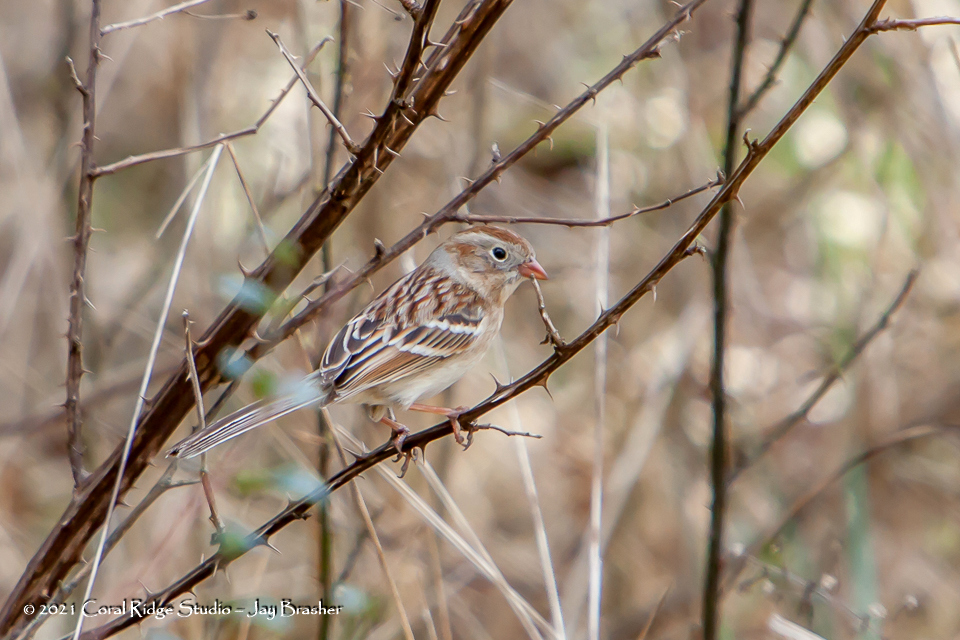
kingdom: Animalia
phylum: Chordata
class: Aves
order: Passeriformes
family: Passerellidae
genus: Spizella
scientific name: Spizella pusilla
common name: Field sparrow
